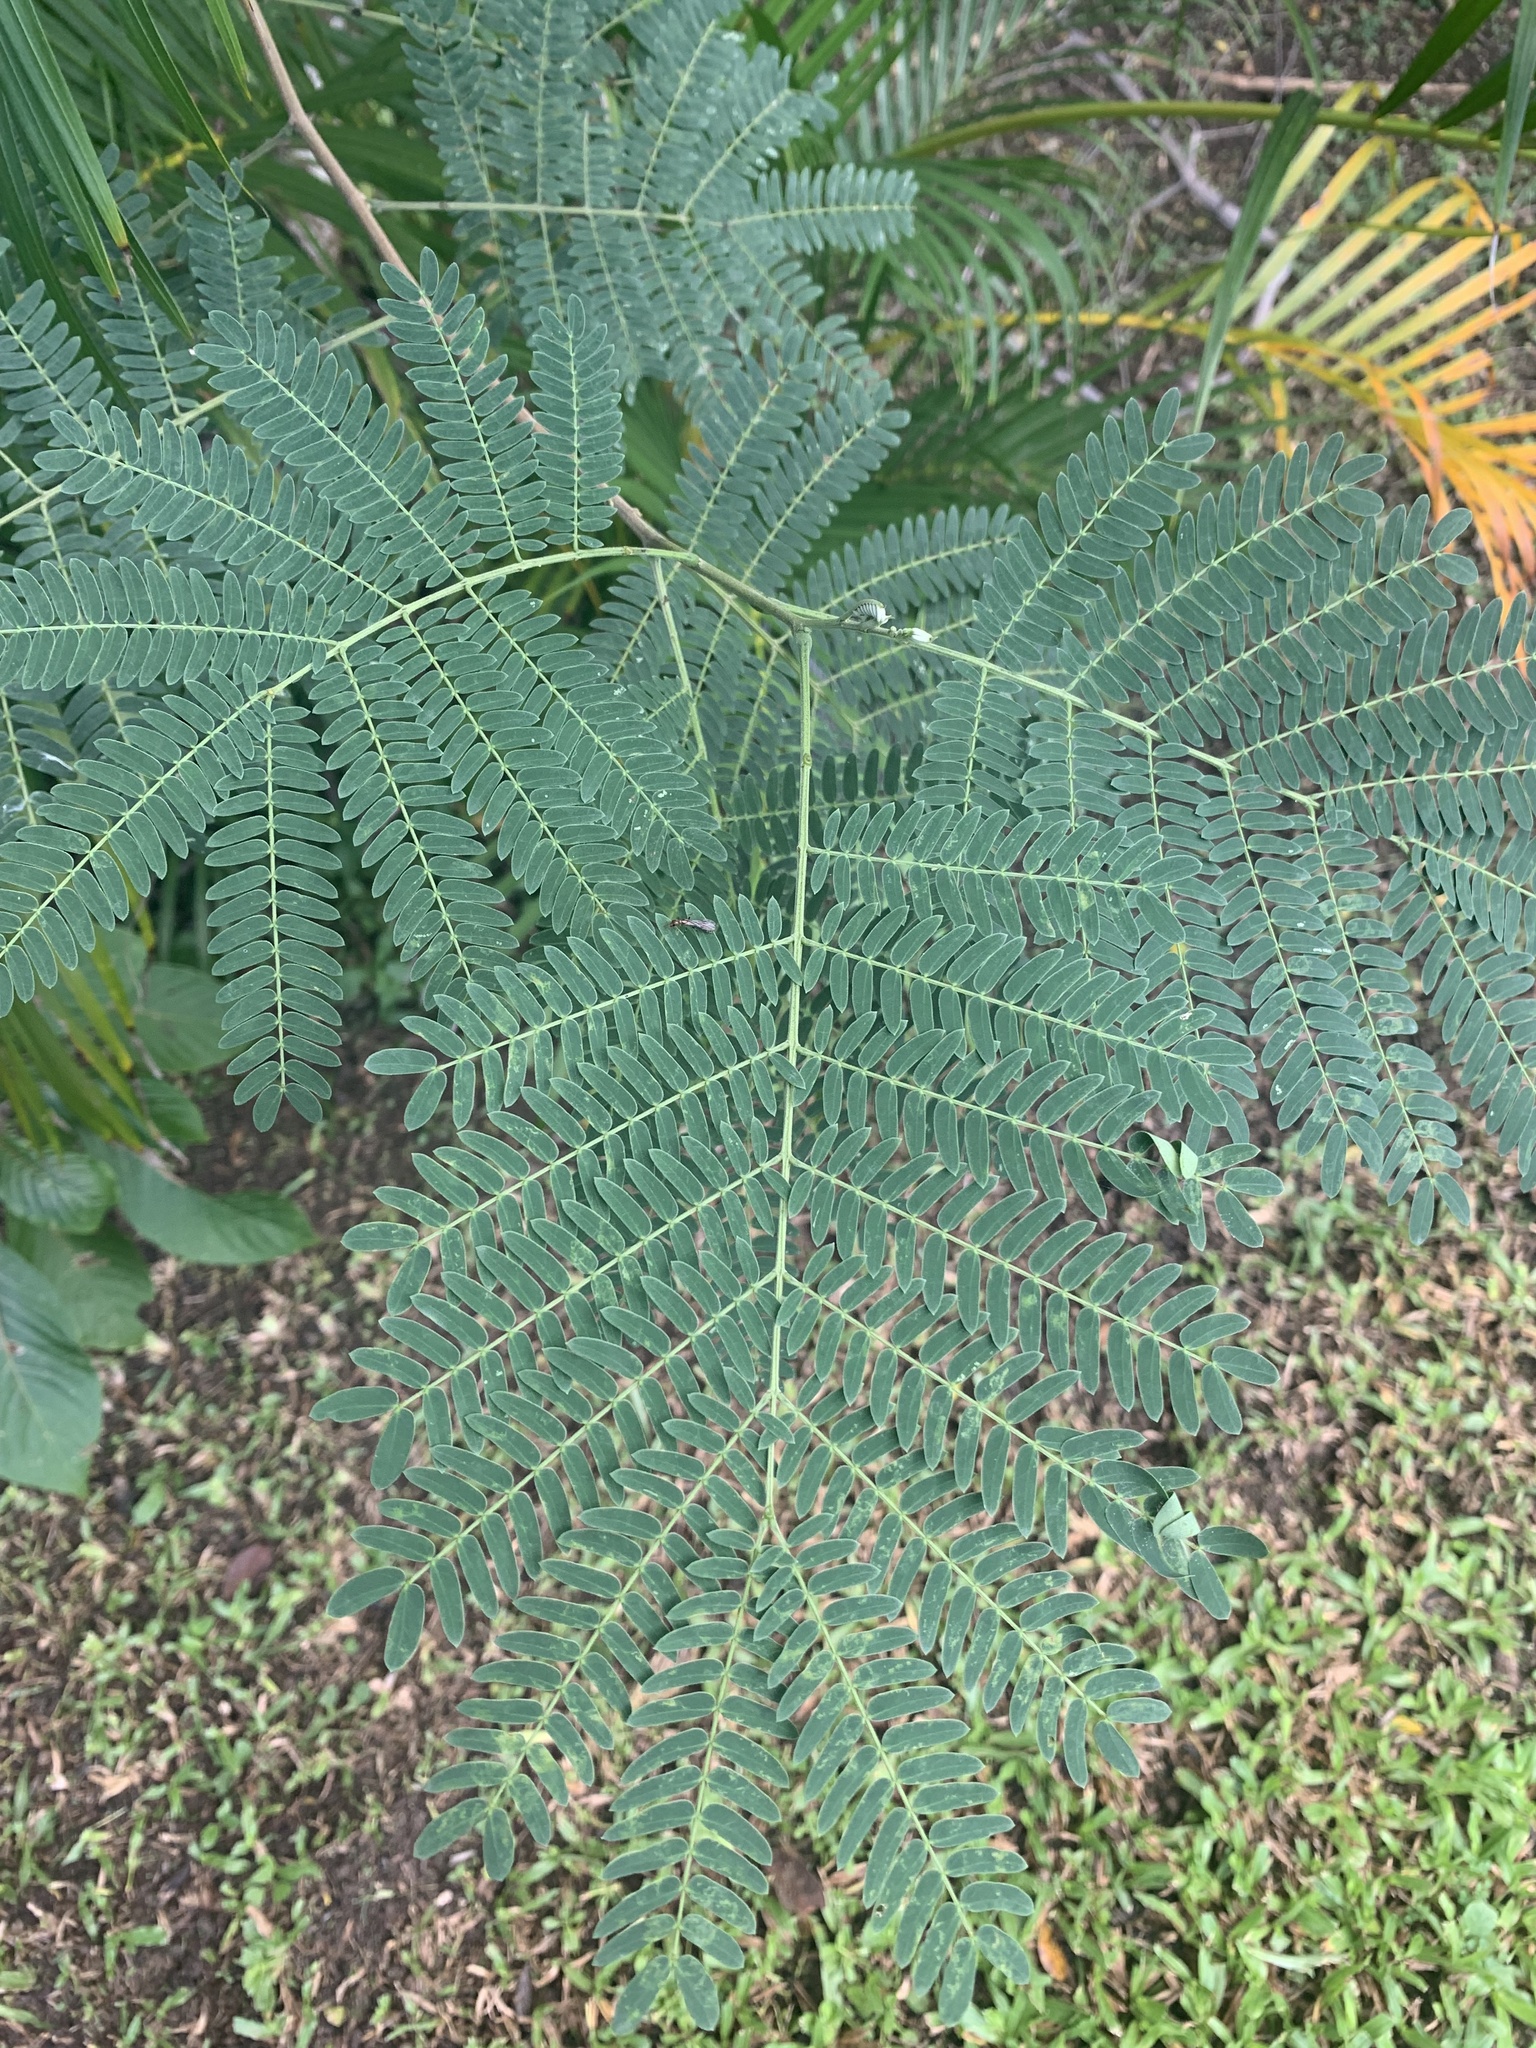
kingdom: Plantae
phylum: Tracheophyta
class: Magnoliopsida
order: Fabales
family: Fabaceae
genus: Leucaena
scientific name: Leucaena leucocephala
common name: White leadtree
